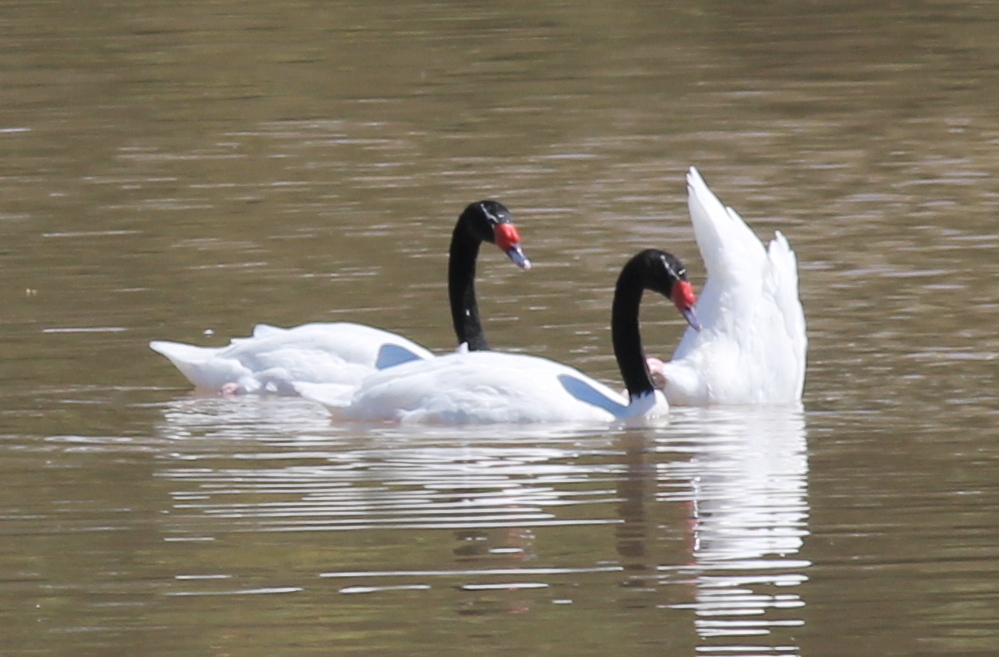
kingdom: Animalia
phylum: Chordata
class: Aves
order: Anseriformes
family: Anatidae
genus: Cygnus
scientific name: Cygnus melancoryphus
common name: Black-necked swan
